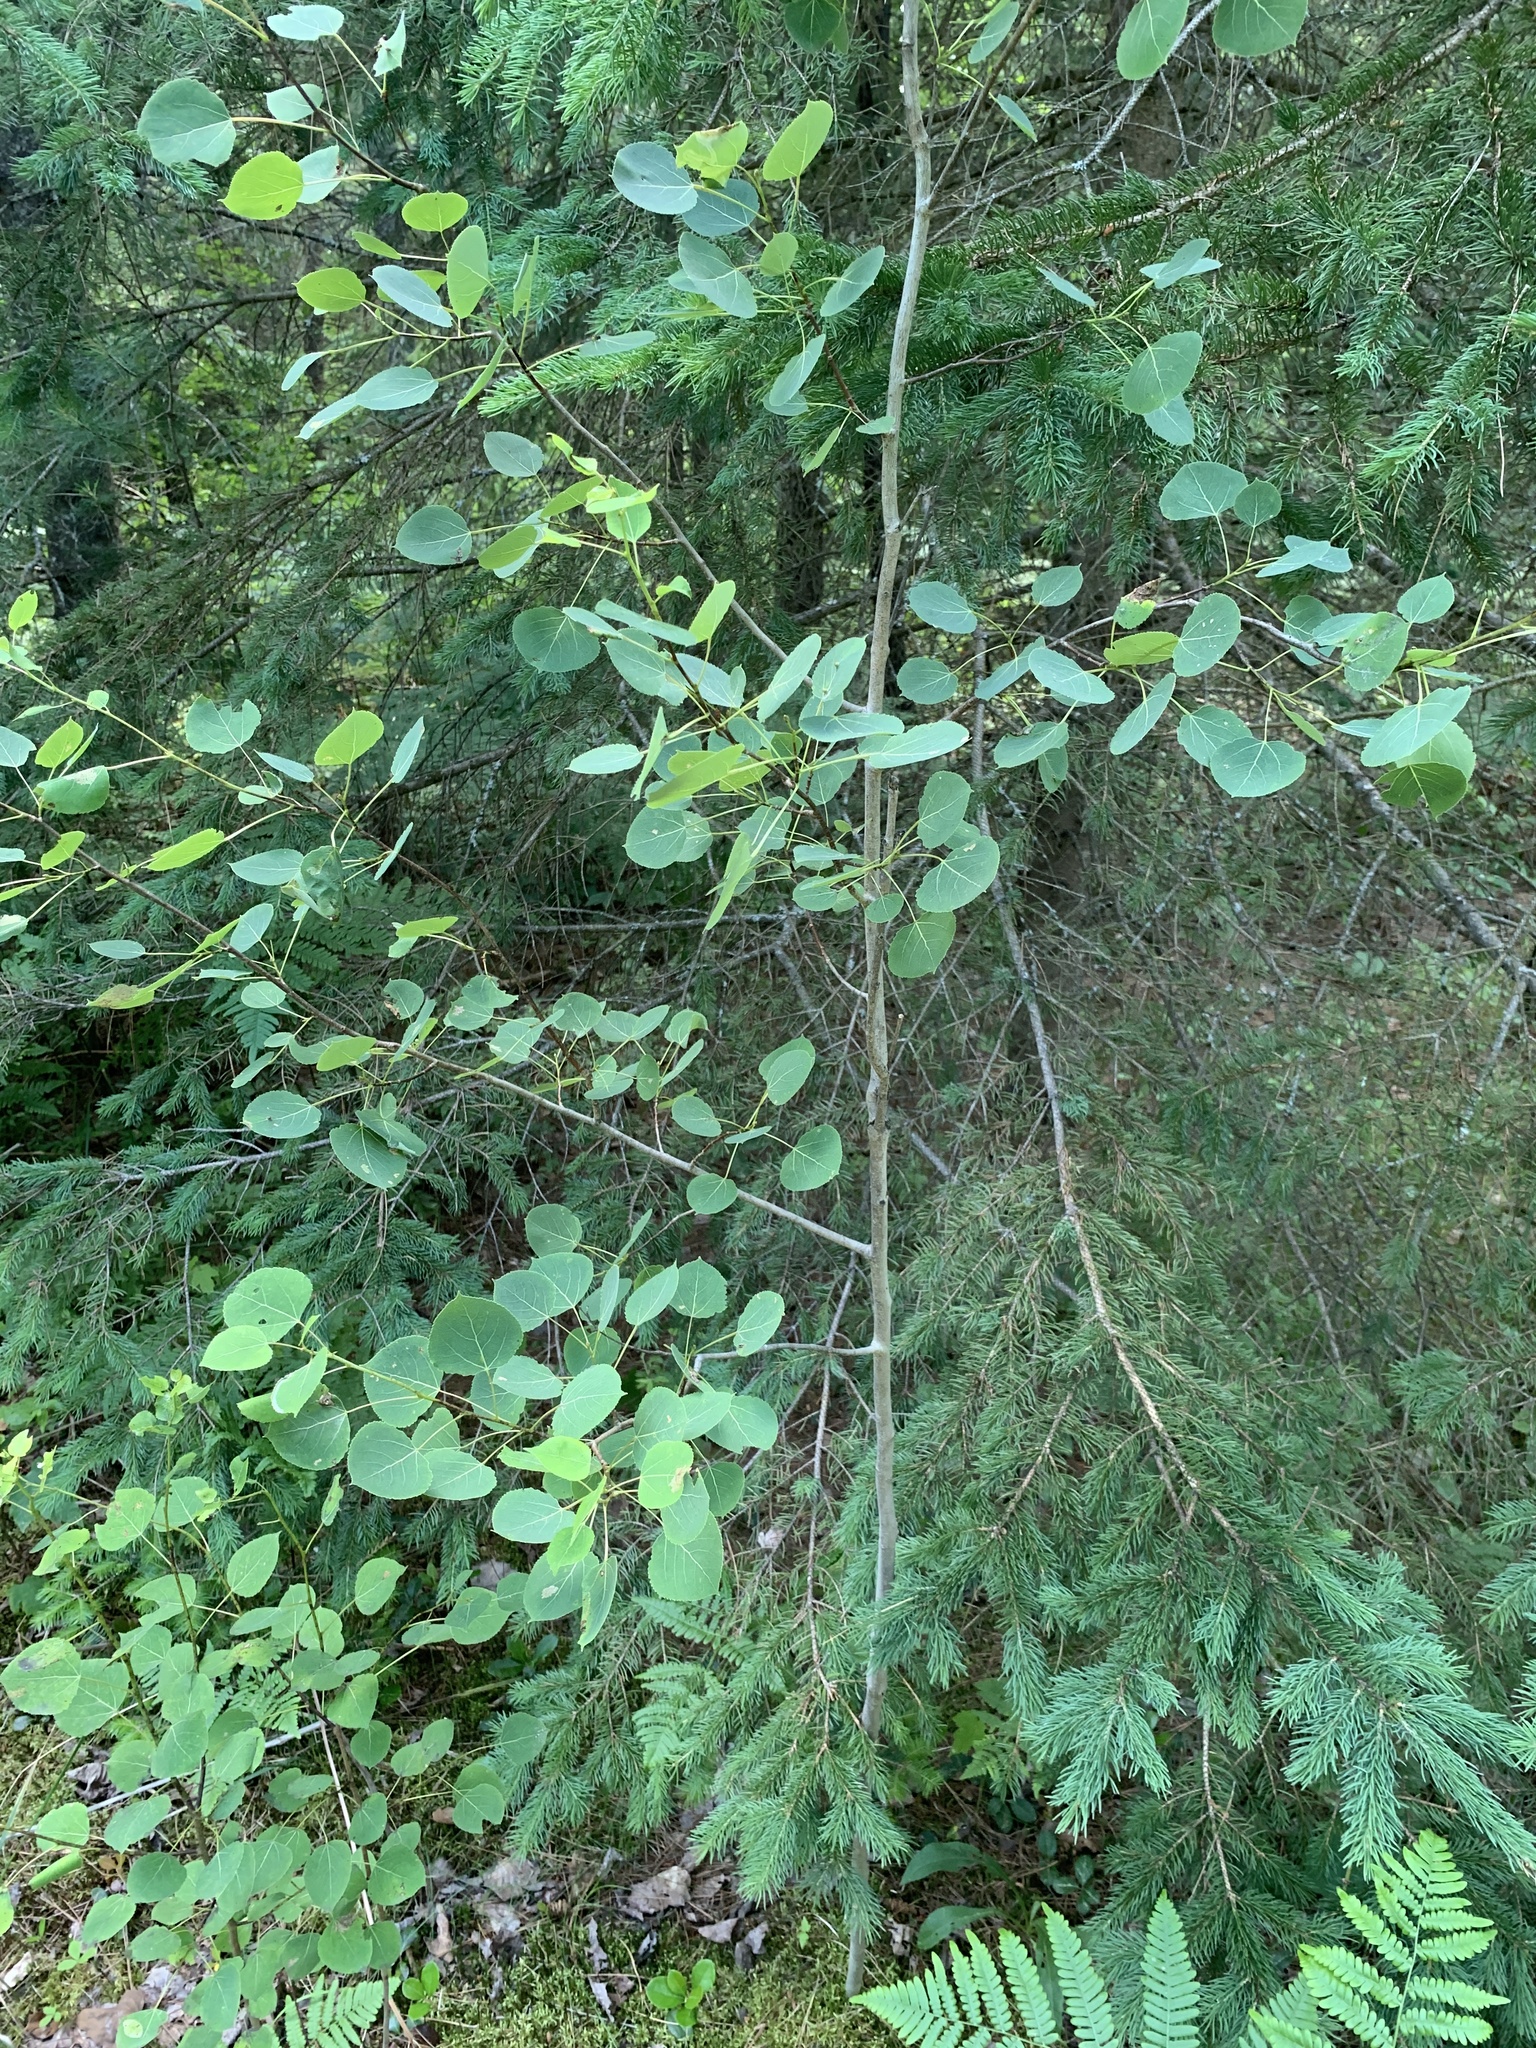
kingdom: Plantae
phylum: Tracheophyta
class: Magnoliopsida
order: Malpighiales
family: Salicaceae
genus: Populus
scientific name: Populus tremuloides
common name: Quaking aspen
